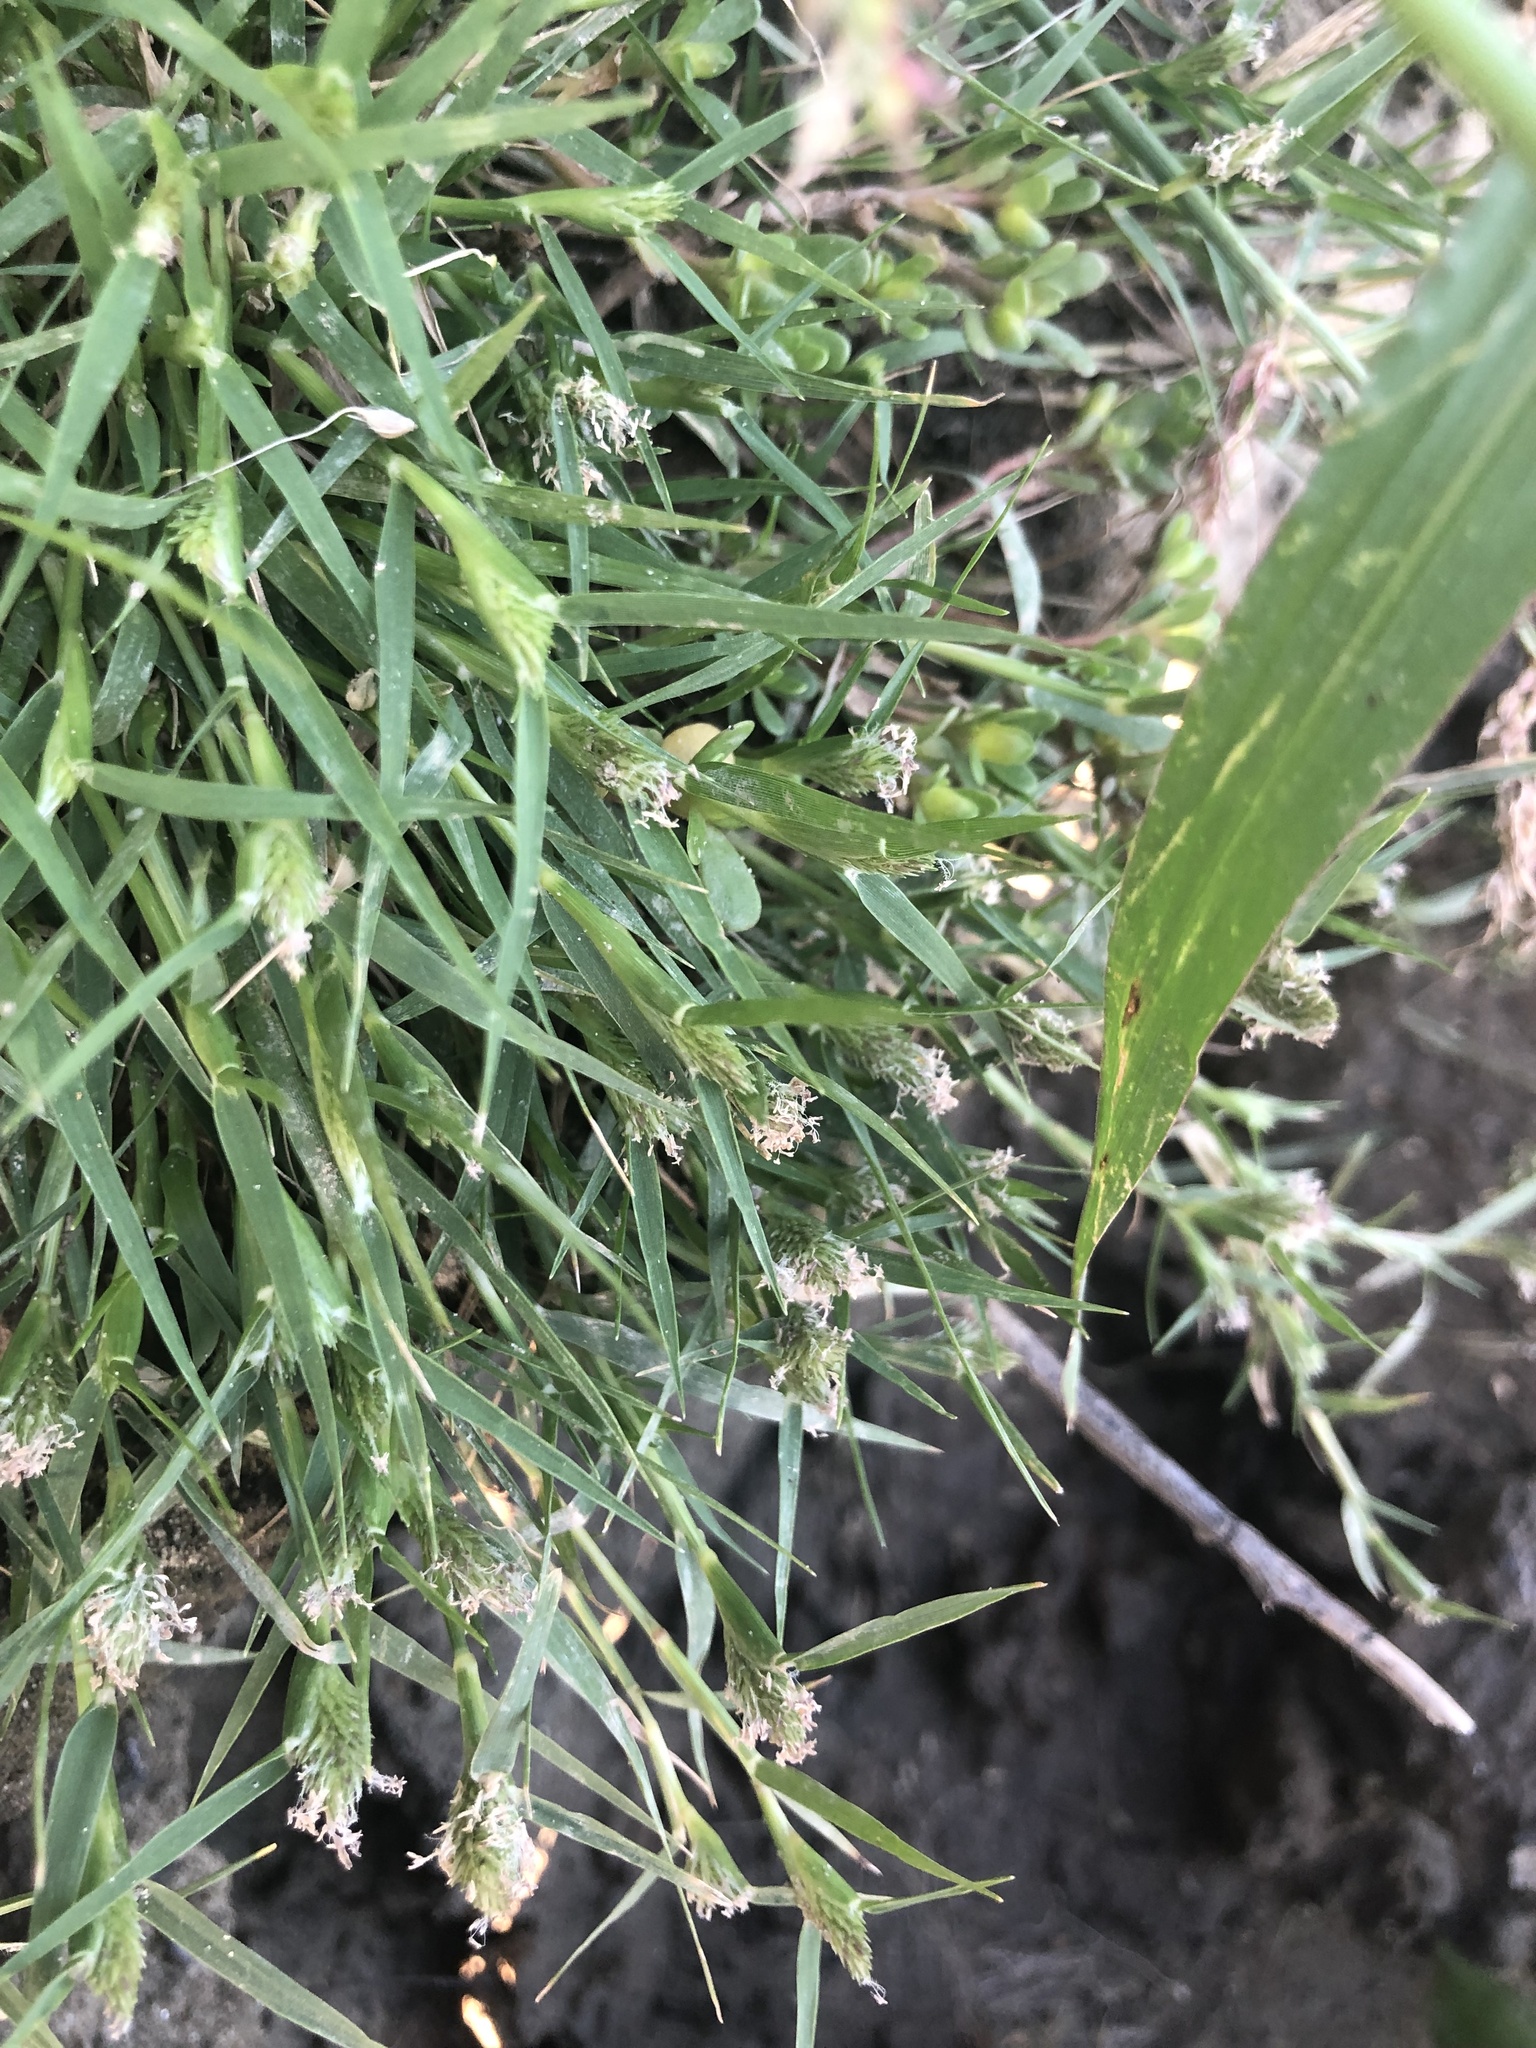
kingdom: Plantae
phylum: Tracheophyta
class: Liliopsida
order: Poales
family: Poaceae
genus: Sporobolus
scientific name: Sporobolus schoenoides
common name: Rush-like timothy
